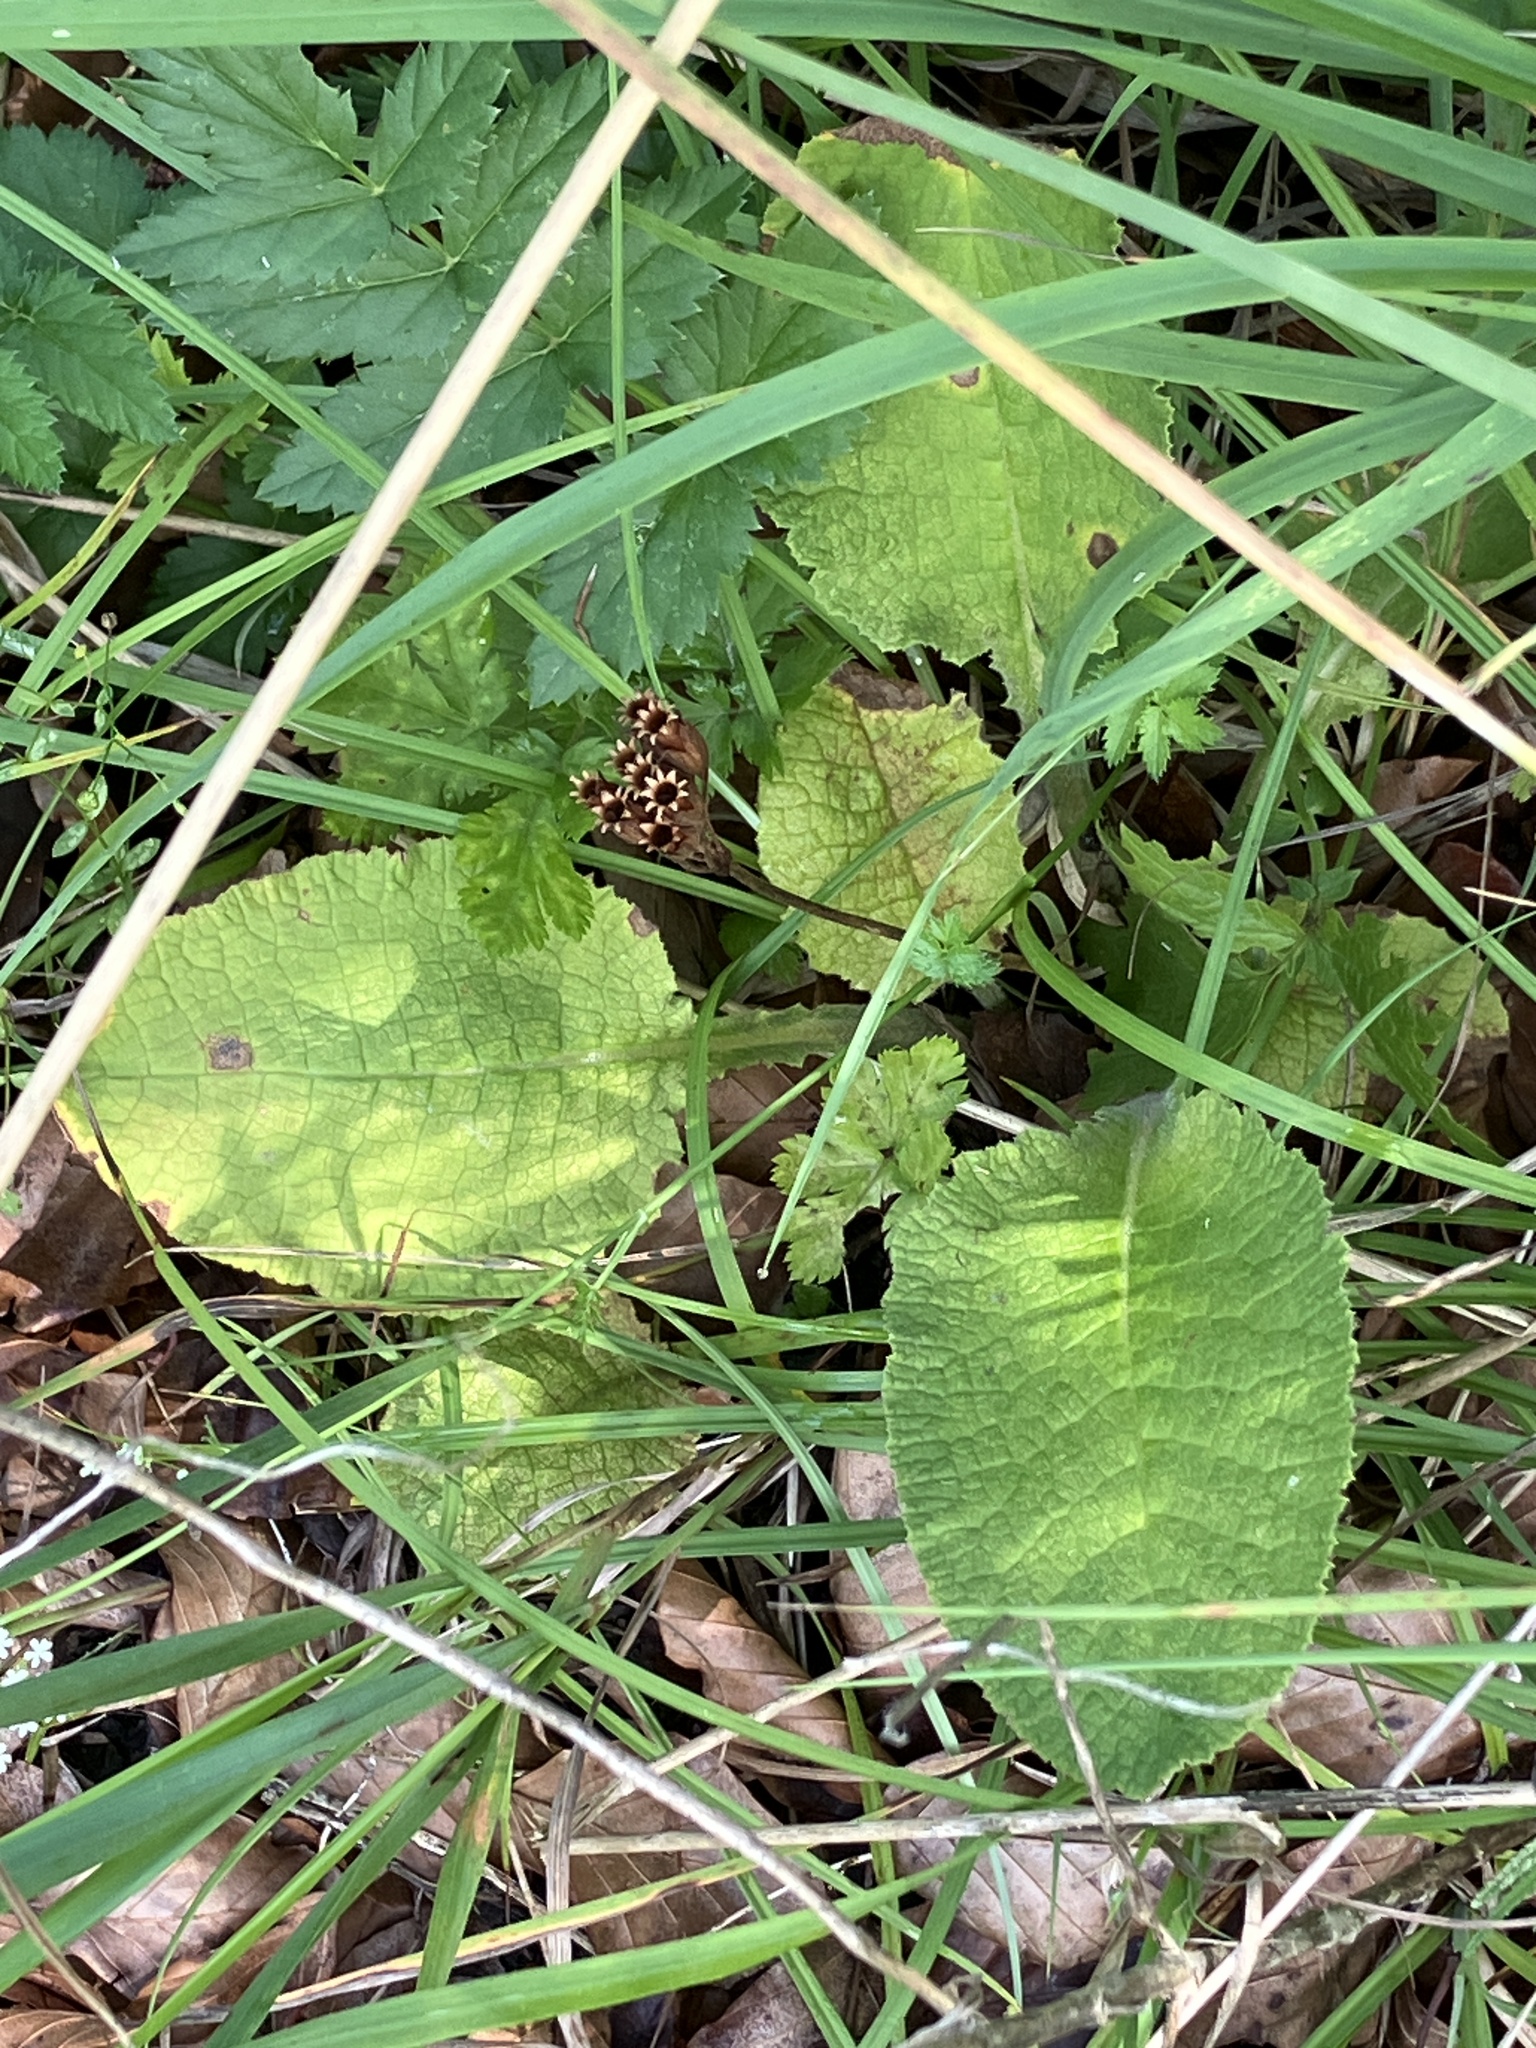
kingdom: Plantae
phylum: Tracheophyta
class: Magnoliopsida
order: Ericales
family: Primulaceae
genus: Primula
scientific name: Primula elatior
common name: Oxlip
